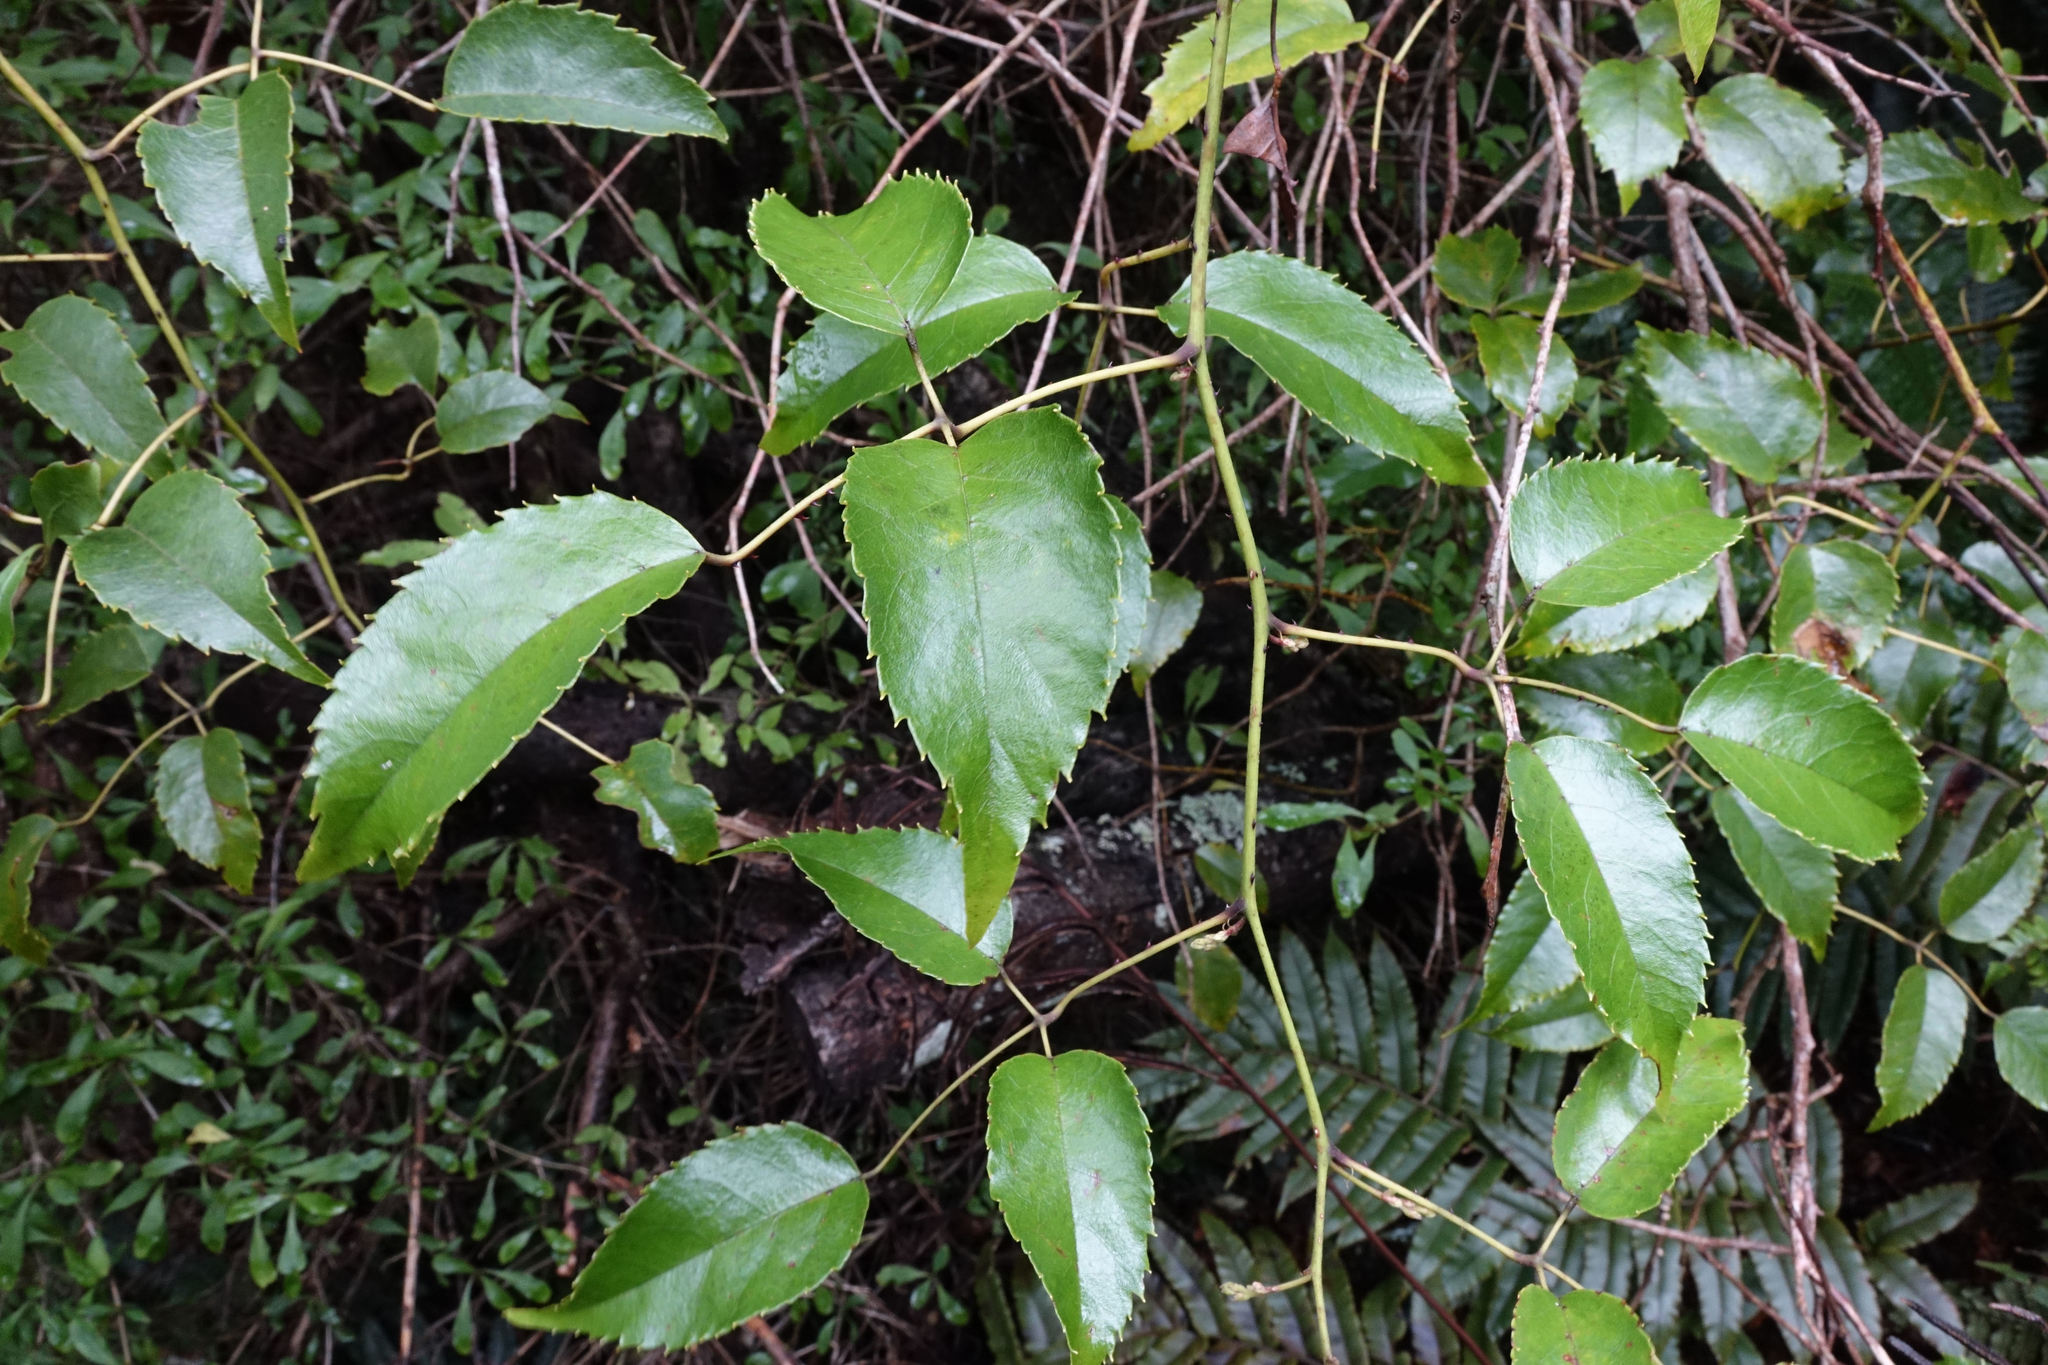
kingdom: Plantae
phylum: Tracheophyta
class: Magnoliopsida
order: Rosales
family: Rosaceae
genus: Rubus
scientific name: Rubus cissoides
